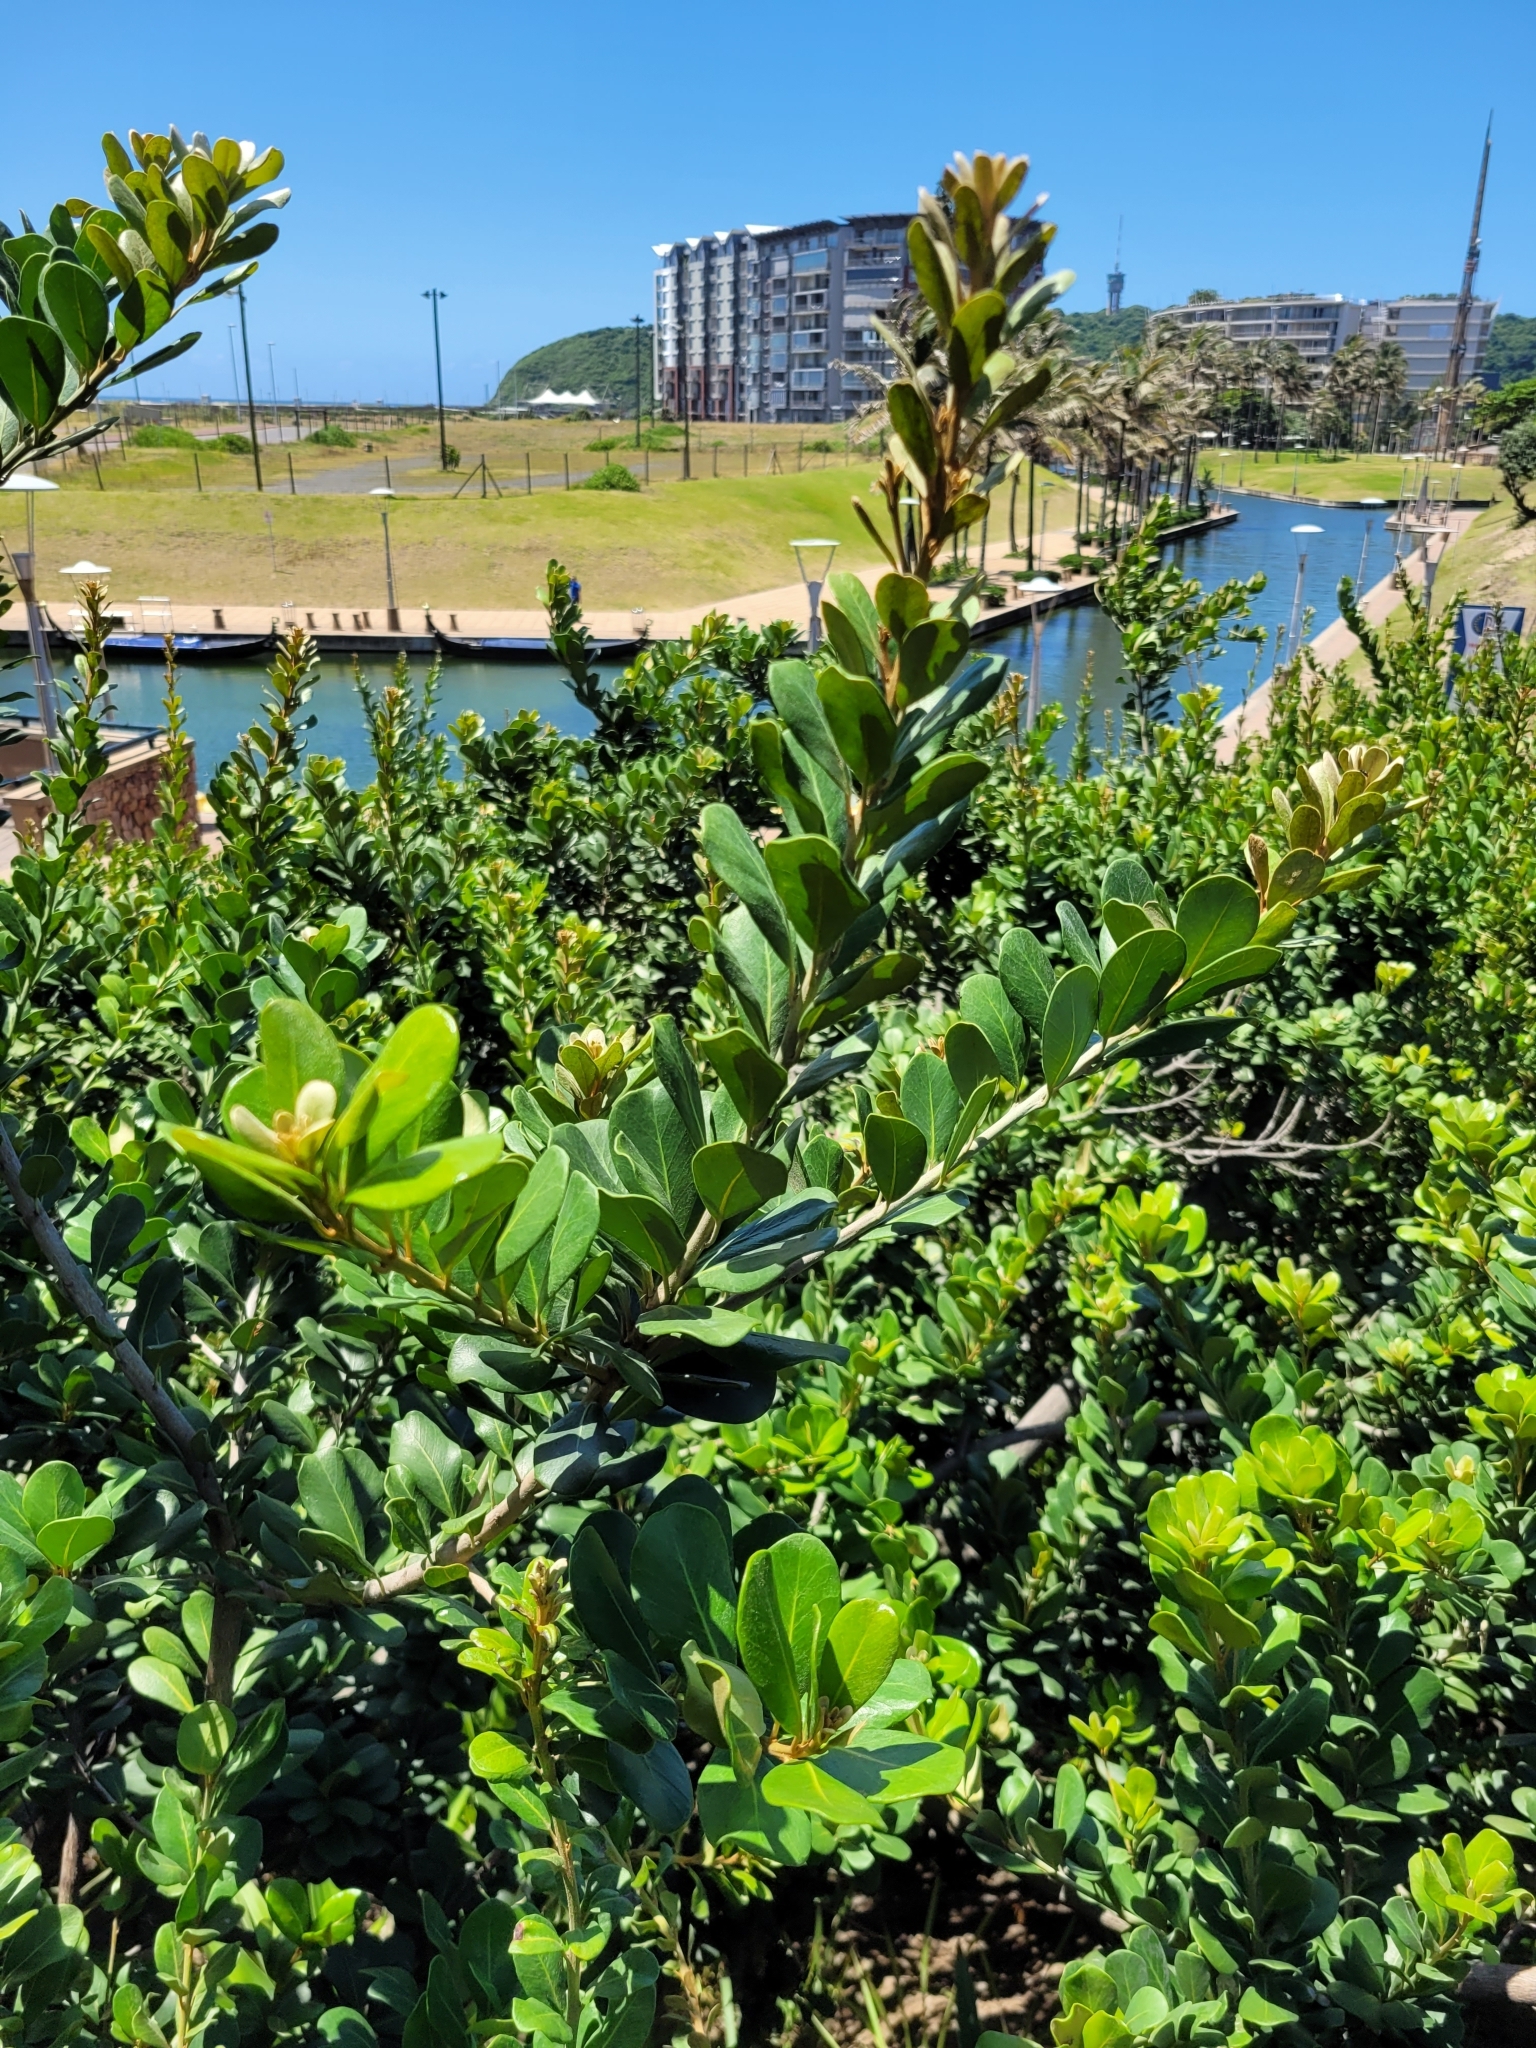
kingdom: Plantae
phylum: Tracheophyta
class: Magnoliopsida
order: Ericales
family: Sapotaceae
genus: Mimusops
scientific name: Mimusops caffra
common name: Coastal red milkwood
